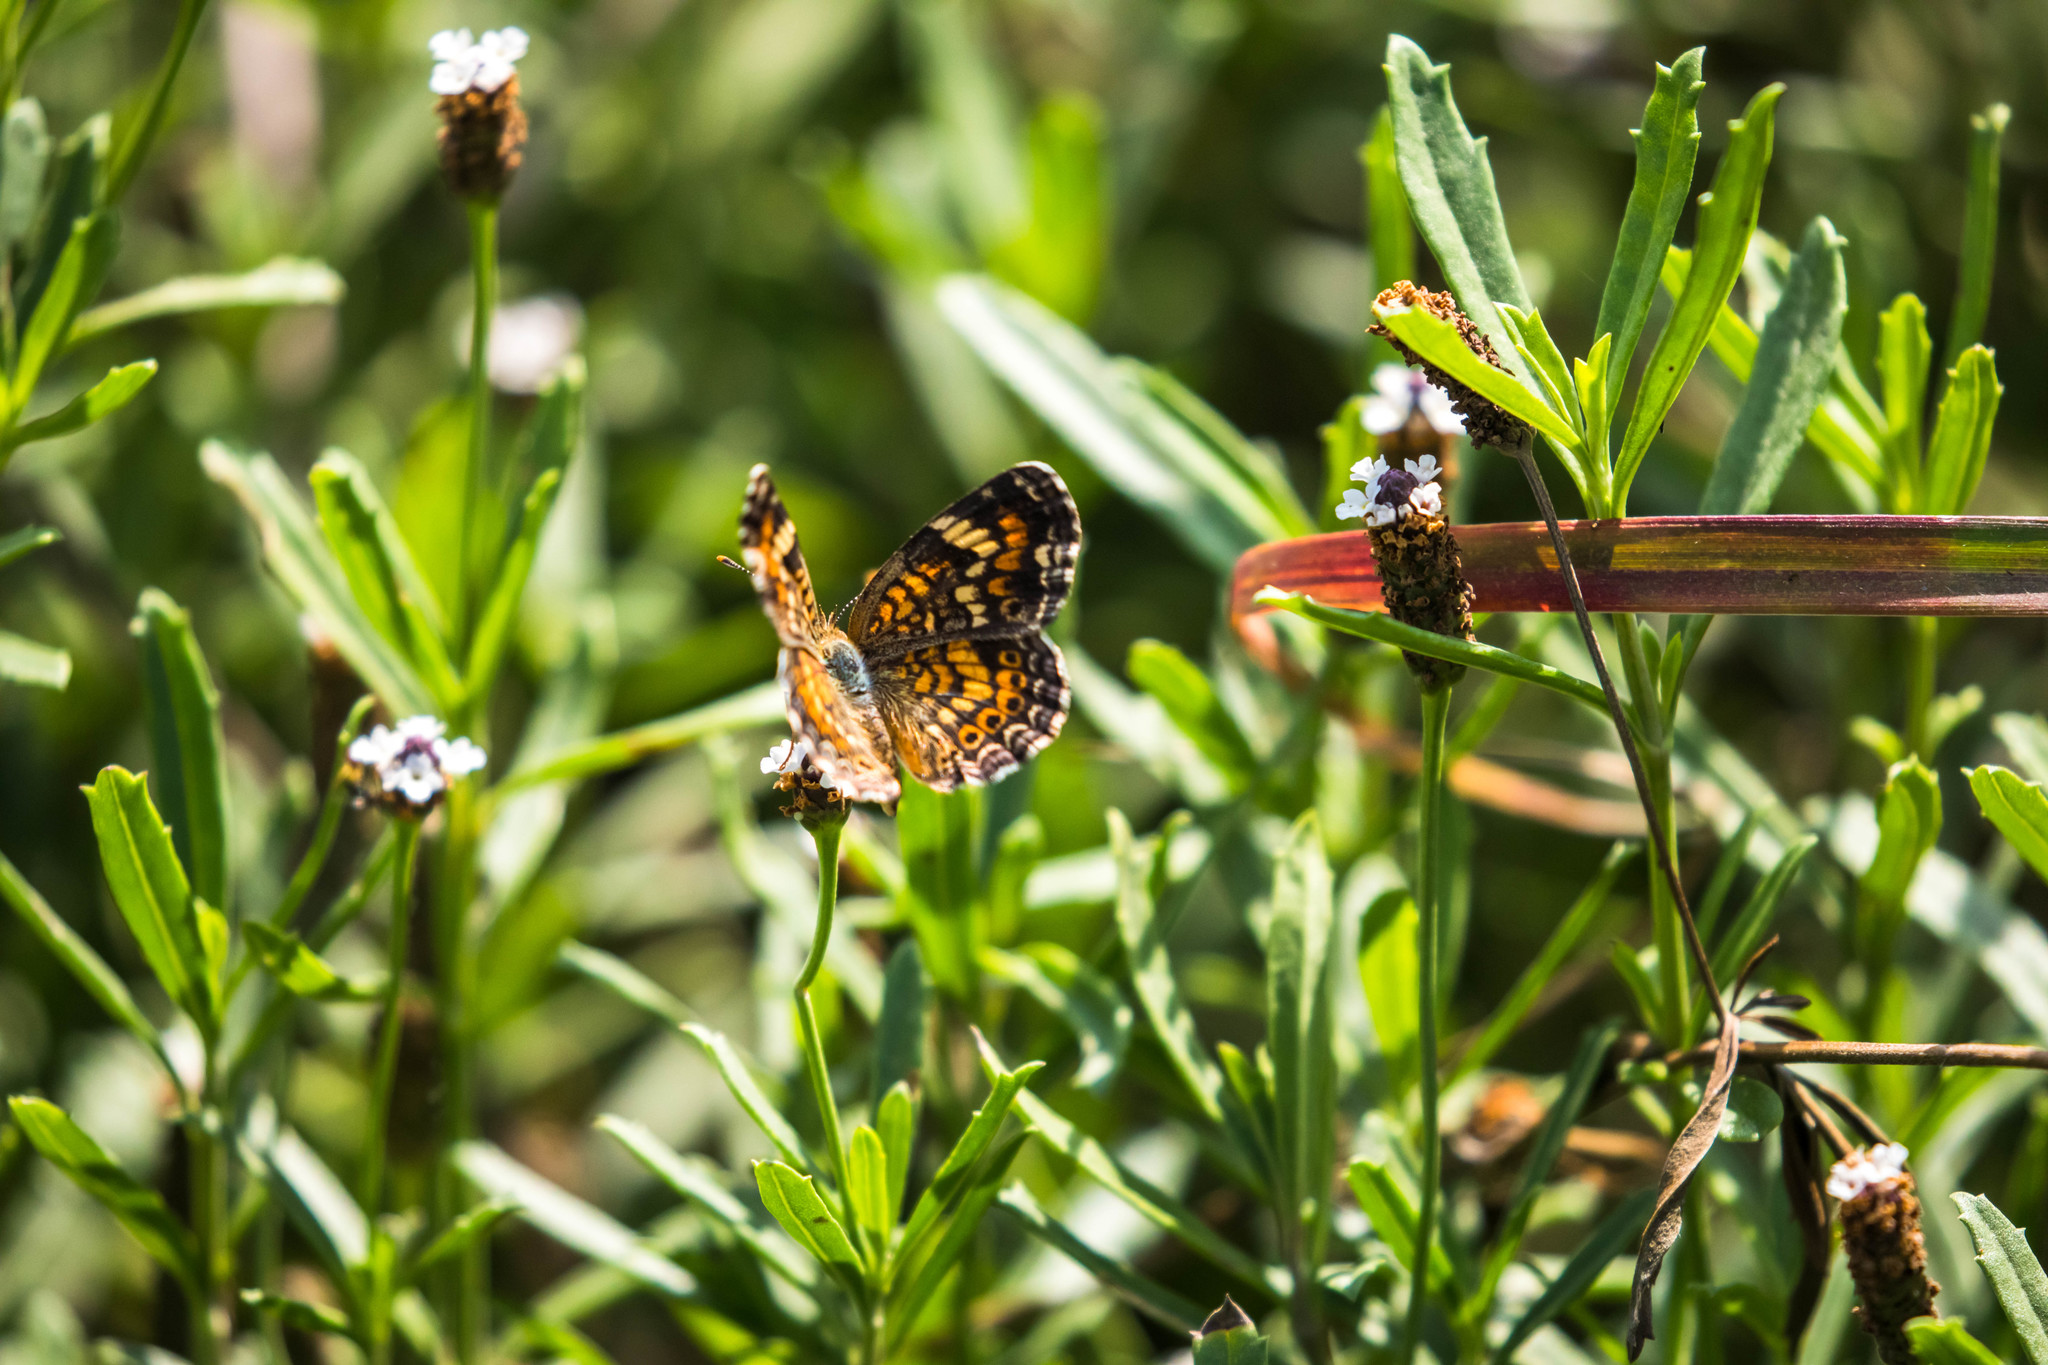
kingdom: Animalia
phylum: Arthropoda
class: Insecta
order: Lepidoptera
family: Nymphalidae
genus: Phyciodes
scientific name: Phyciodes phaon
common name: Phaon crescent
